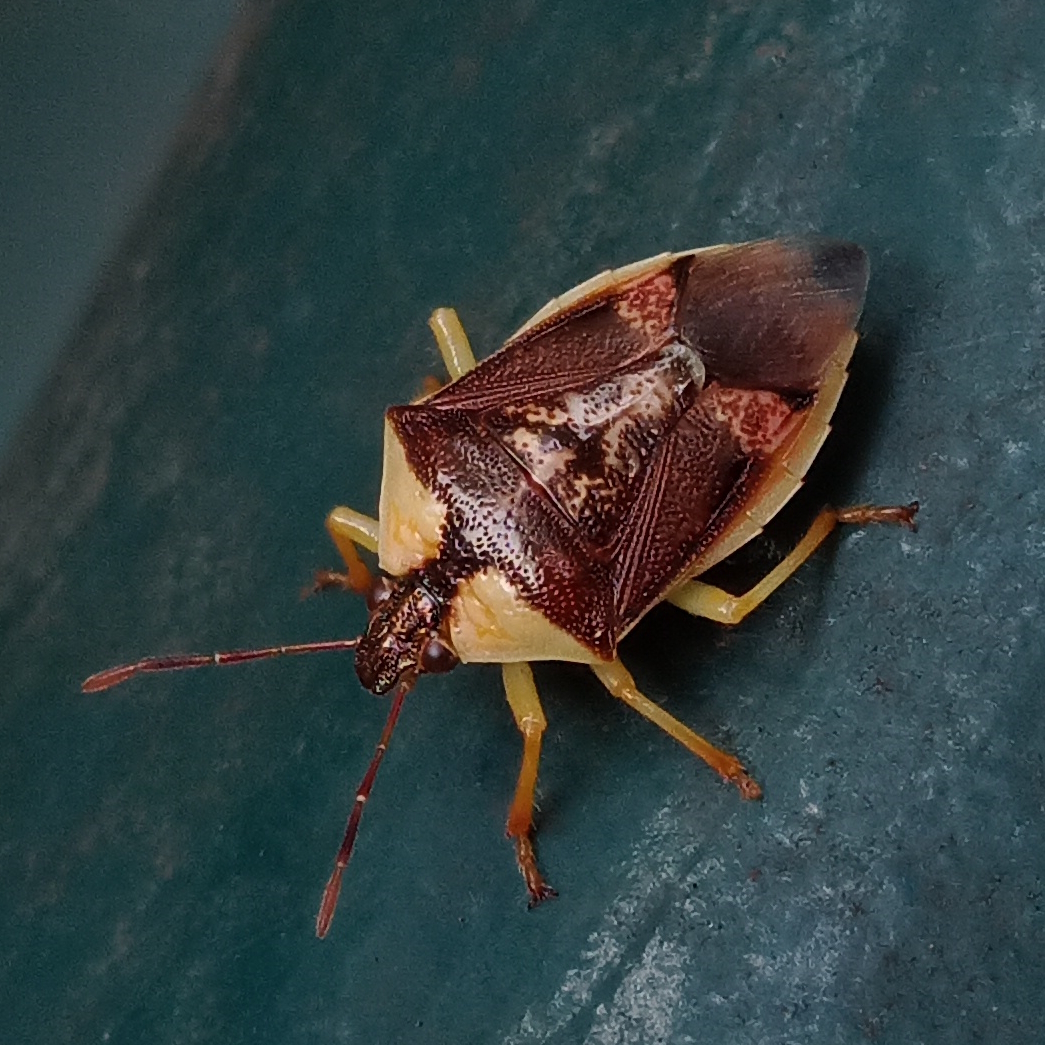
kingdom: Animalia
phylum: Arthropoda
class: Insecta
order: Hemiptera
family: Pentatomidae
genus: Tyrannocoris
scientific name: Tyrannocoris nigriceps
